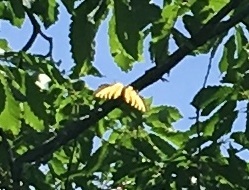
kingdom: Animalia
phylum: Arthropoda
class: Insecta
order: Lepidoptera
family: Papilionidae
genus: Papilio
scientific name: Papilio glaucus
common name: Tiger swallowtail
